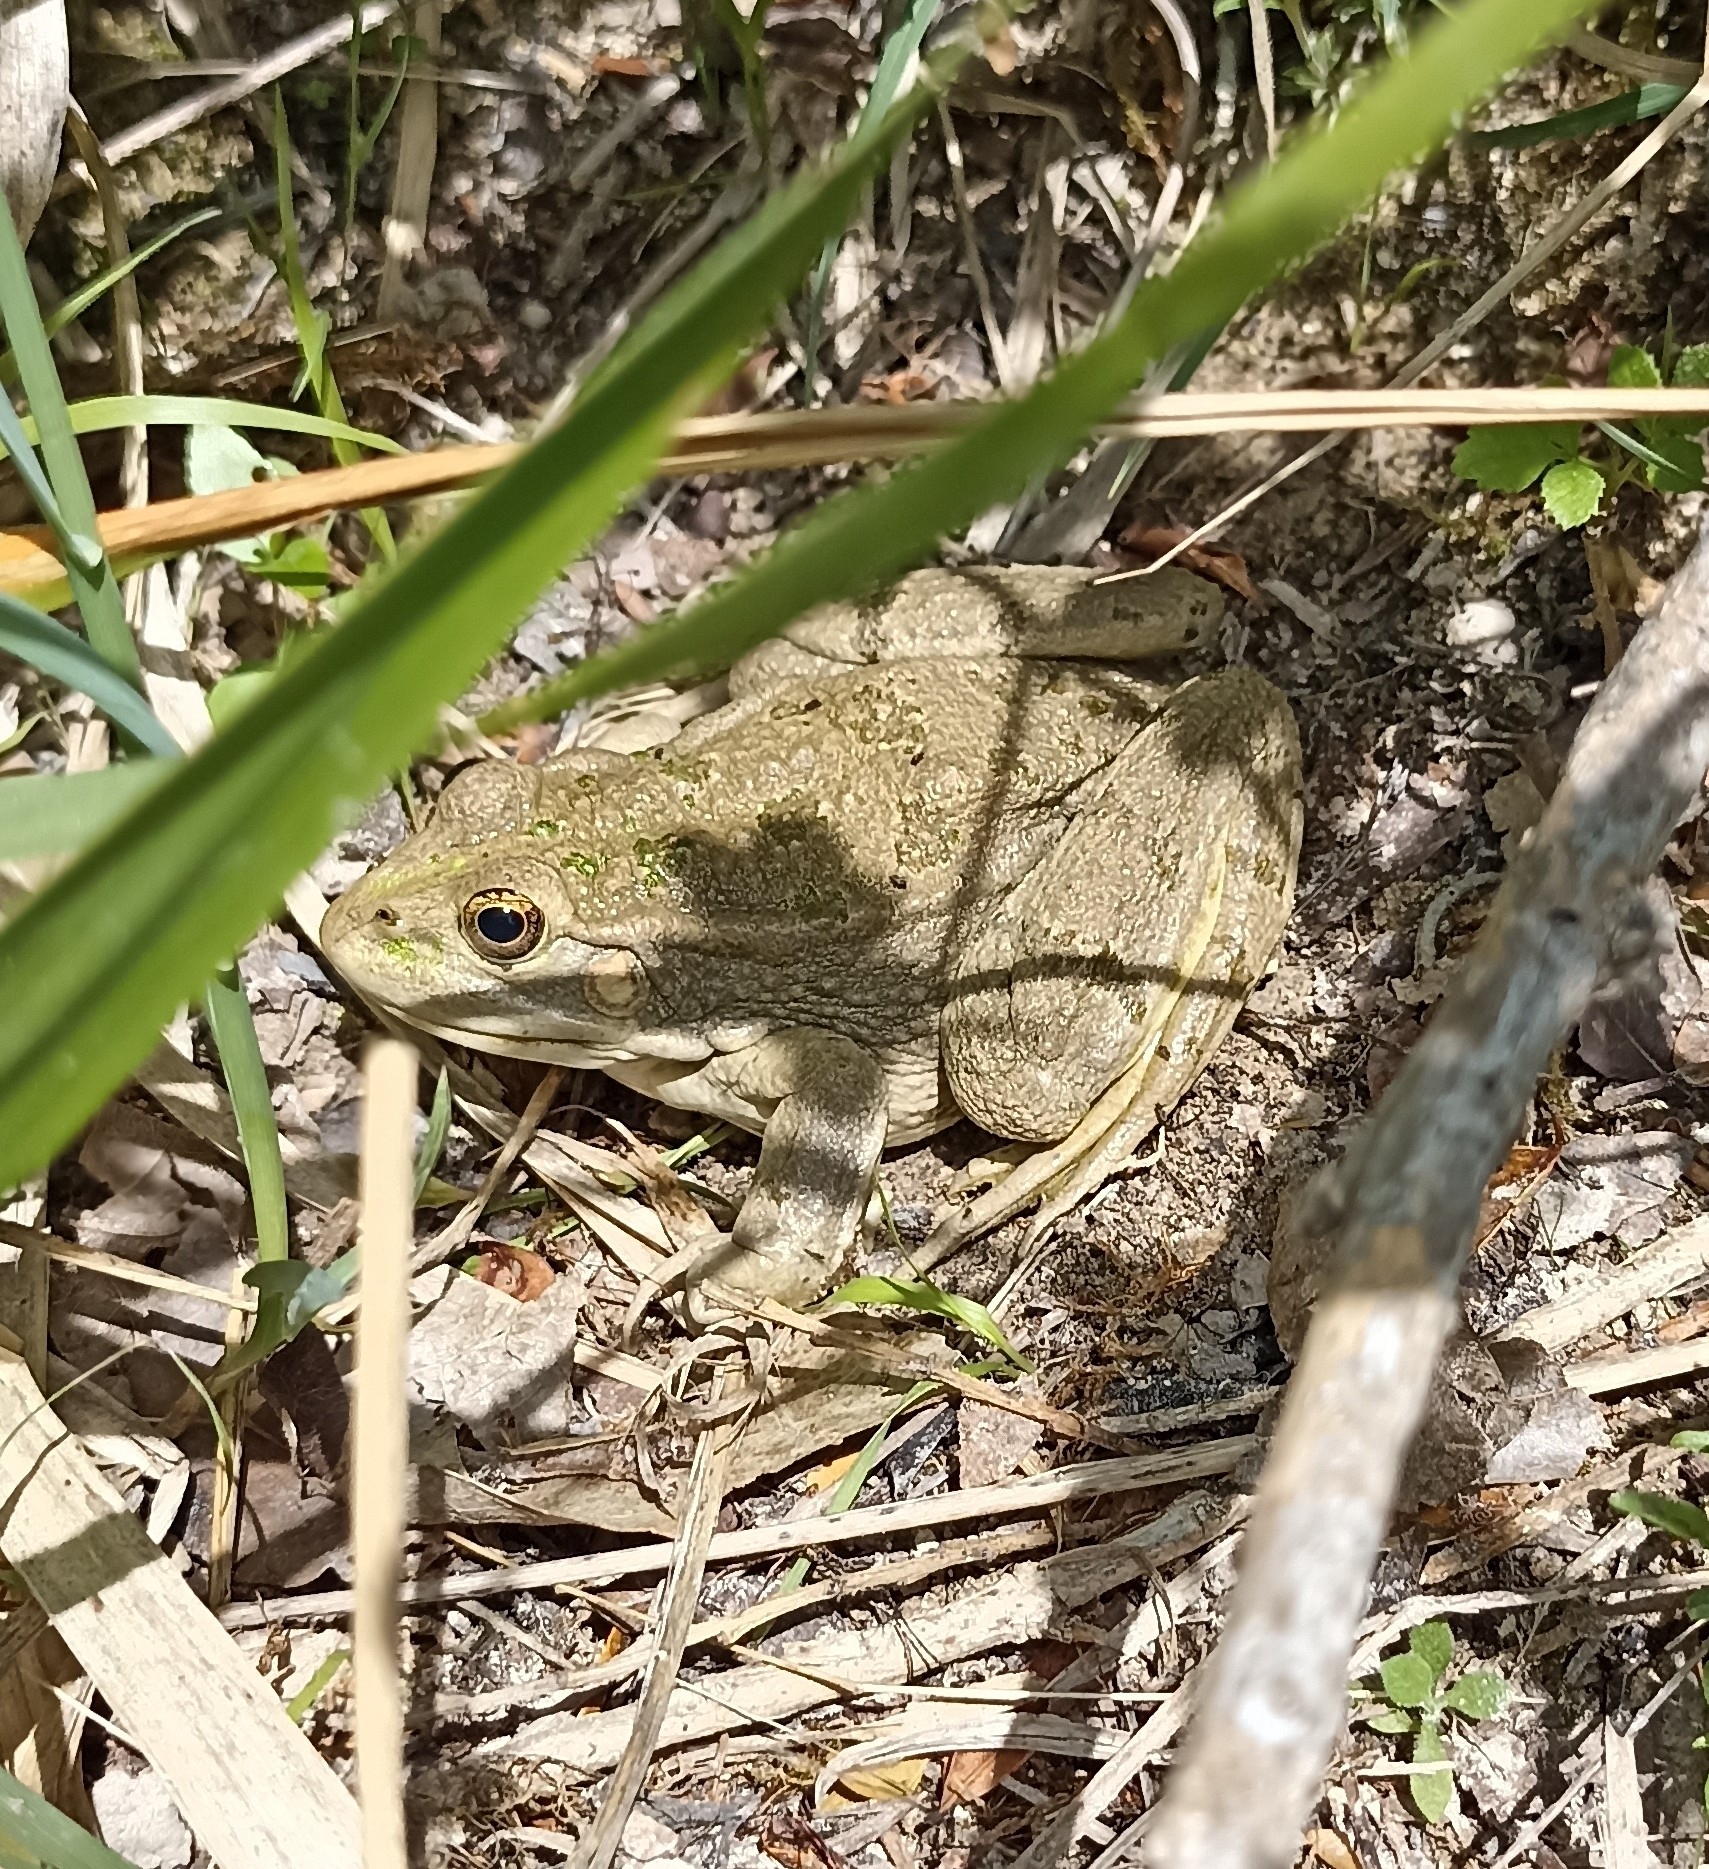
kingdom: Animalia
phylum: Chordata
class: Amphibia
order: Anura
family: Ranidae
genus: Pelophylax
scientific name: Pelophylax
